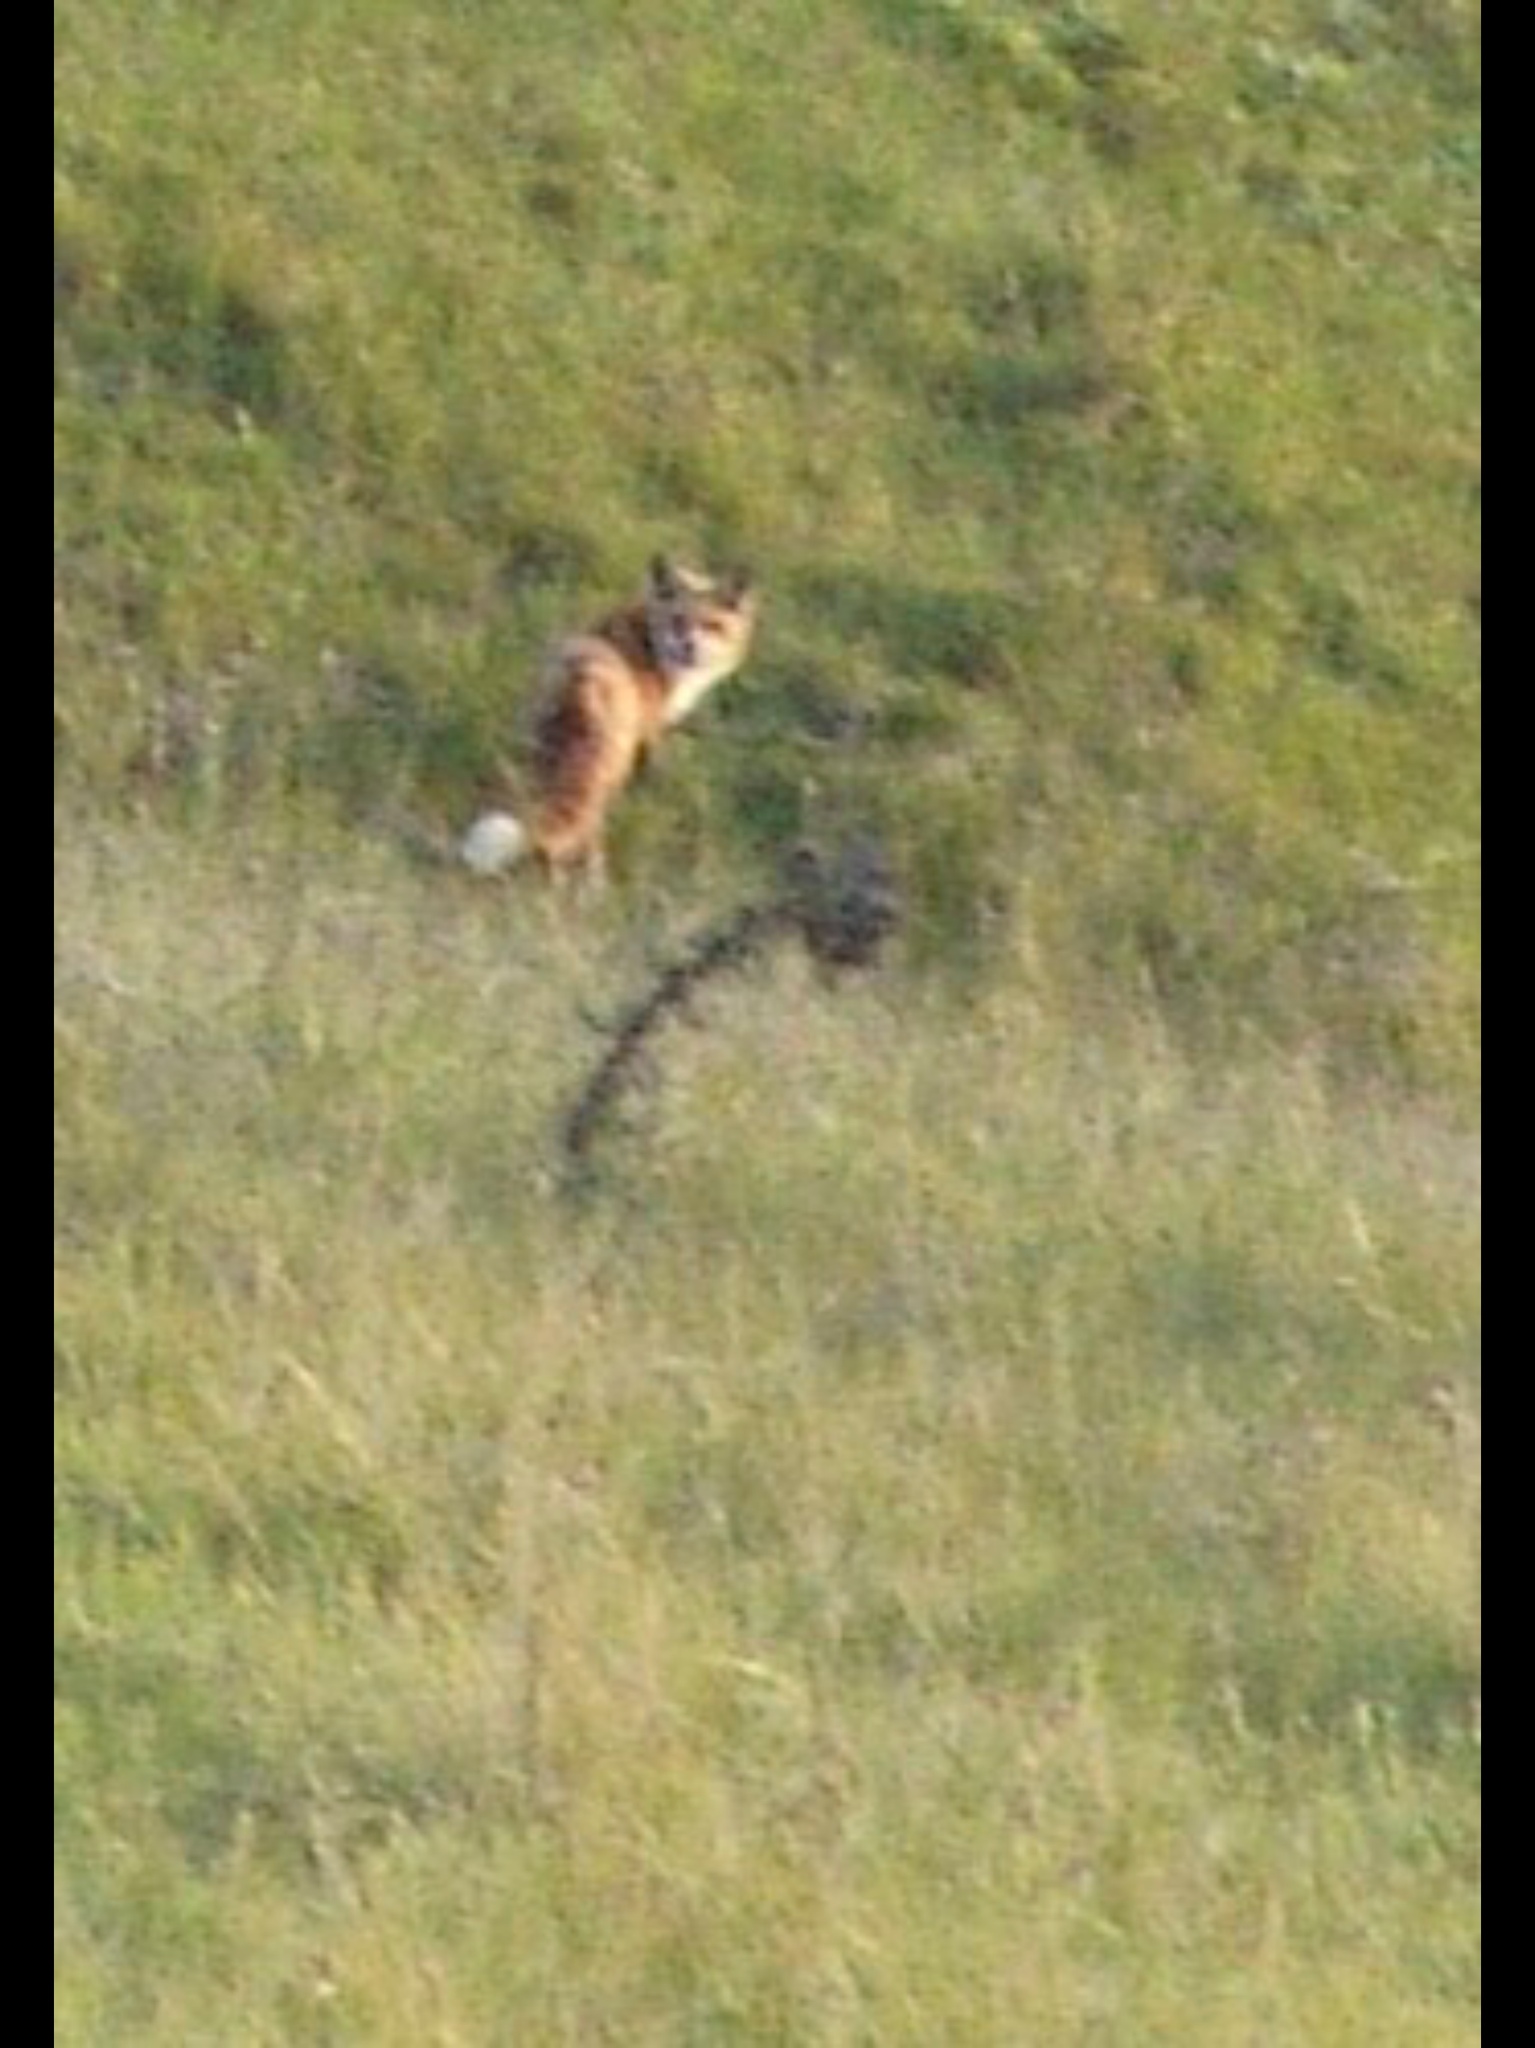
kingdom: Animalia
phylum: Chordata
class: Mammalia
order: Carnivora
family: Canidae
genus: Vulpes
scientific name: Vulpes vulpes
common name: Red fox
